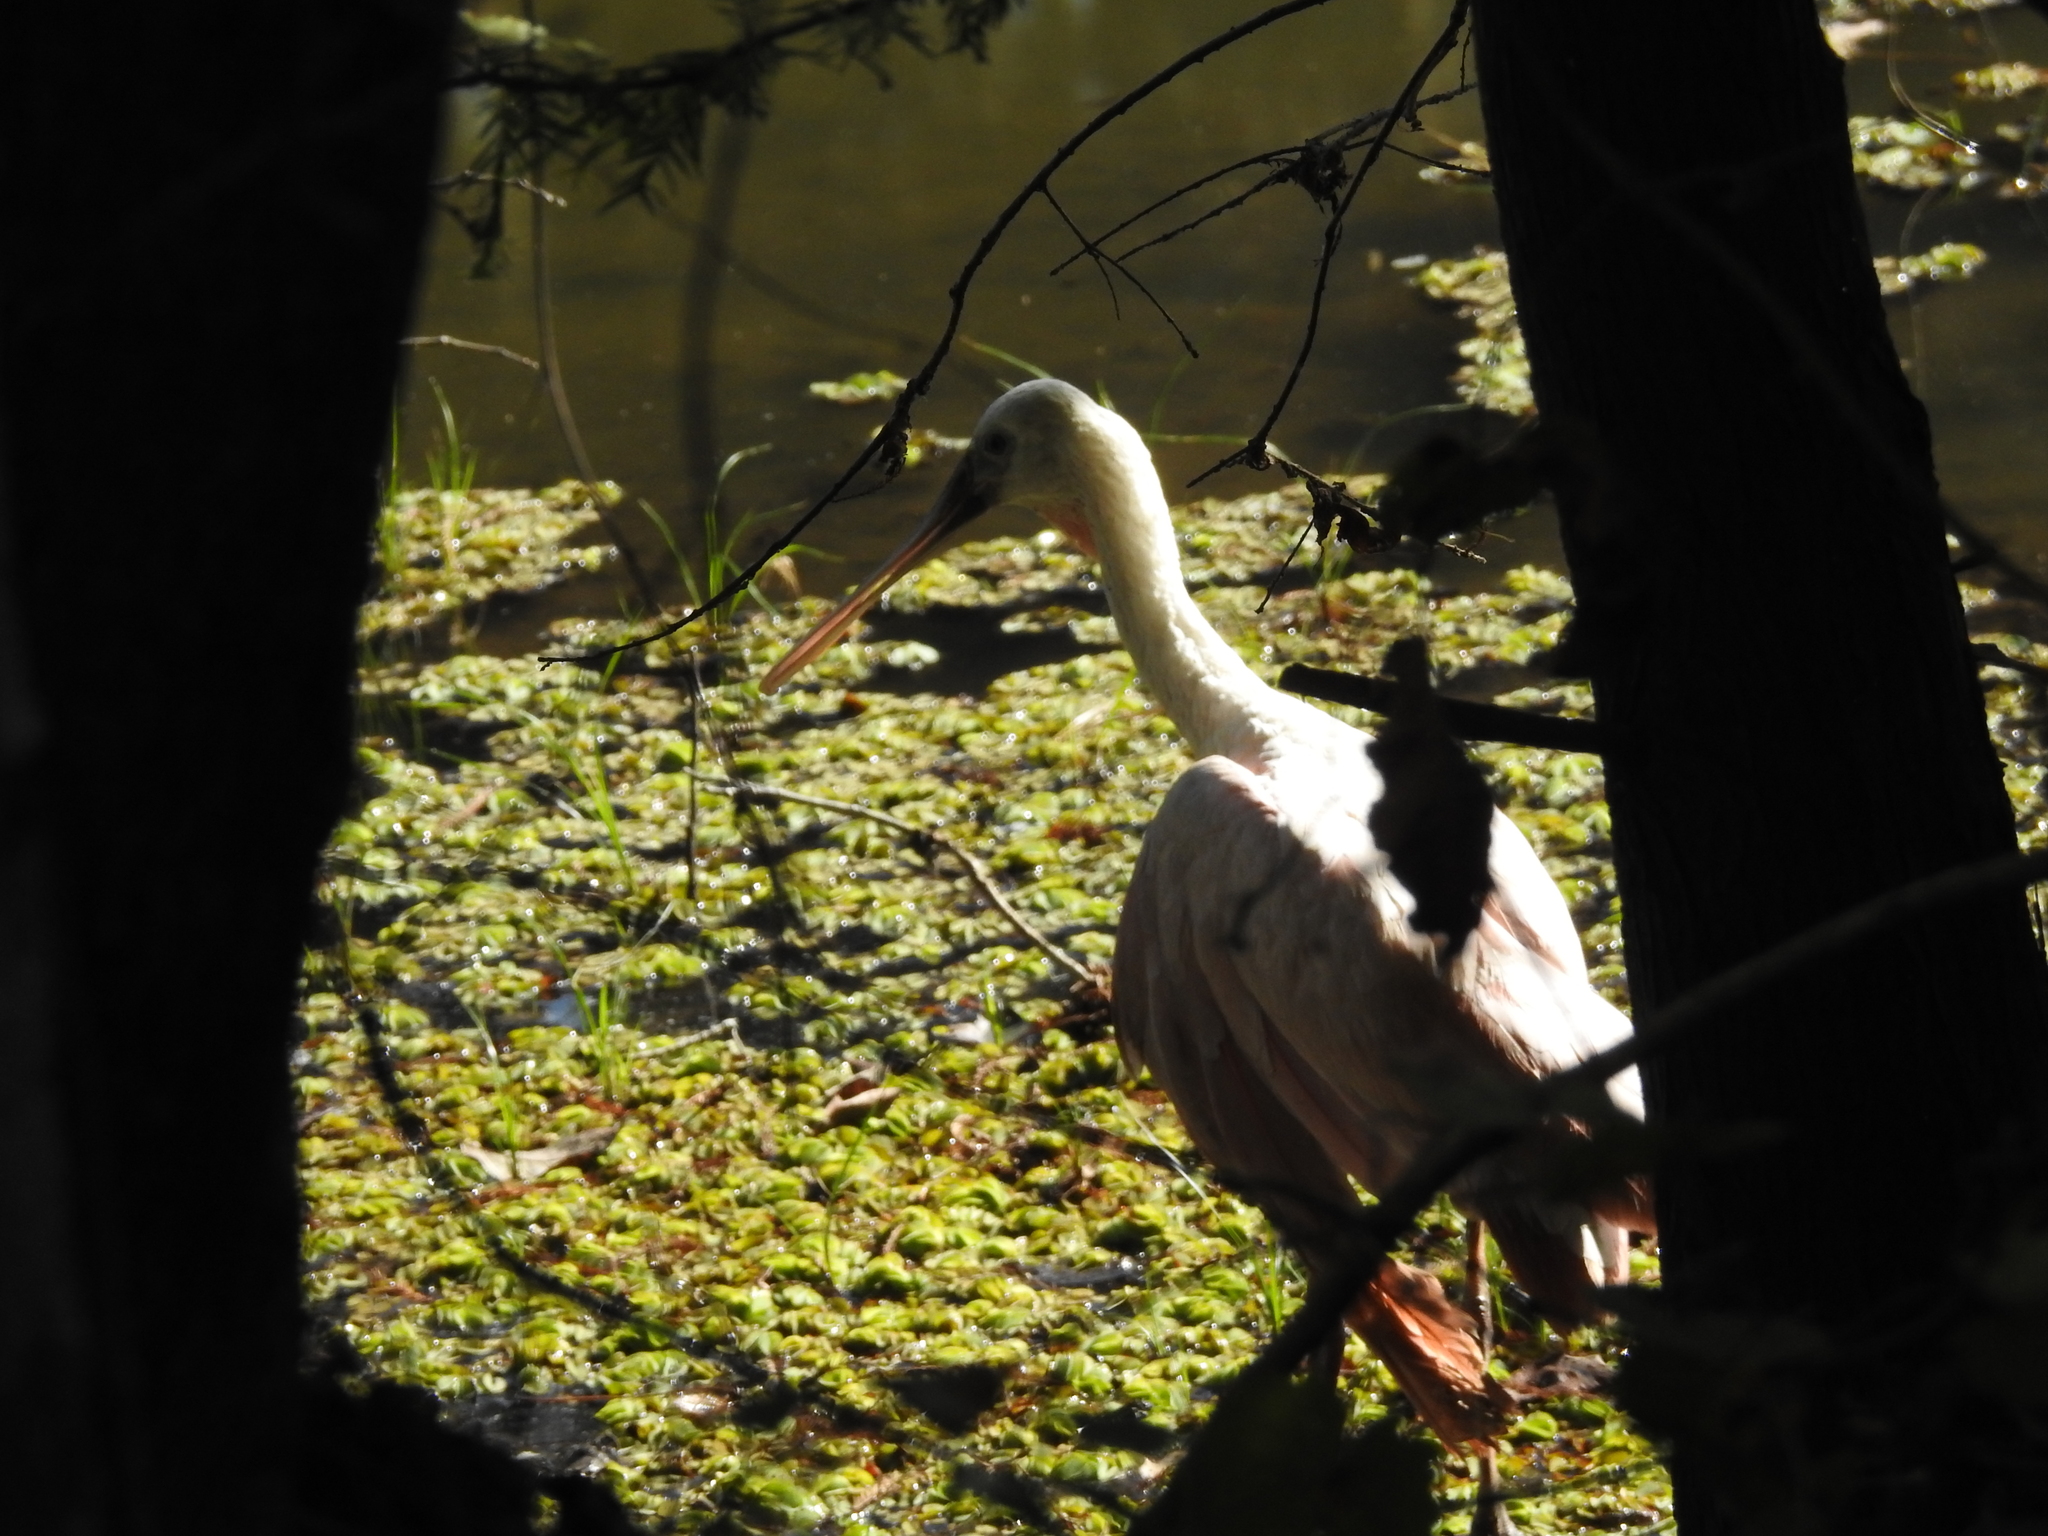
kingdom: Animalia
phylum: Chordata
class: Aves
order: Pelecaniformes
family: Threskiornithidae
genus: Platalea
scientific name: Platalea ajaja
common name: Roseate spoonbill
